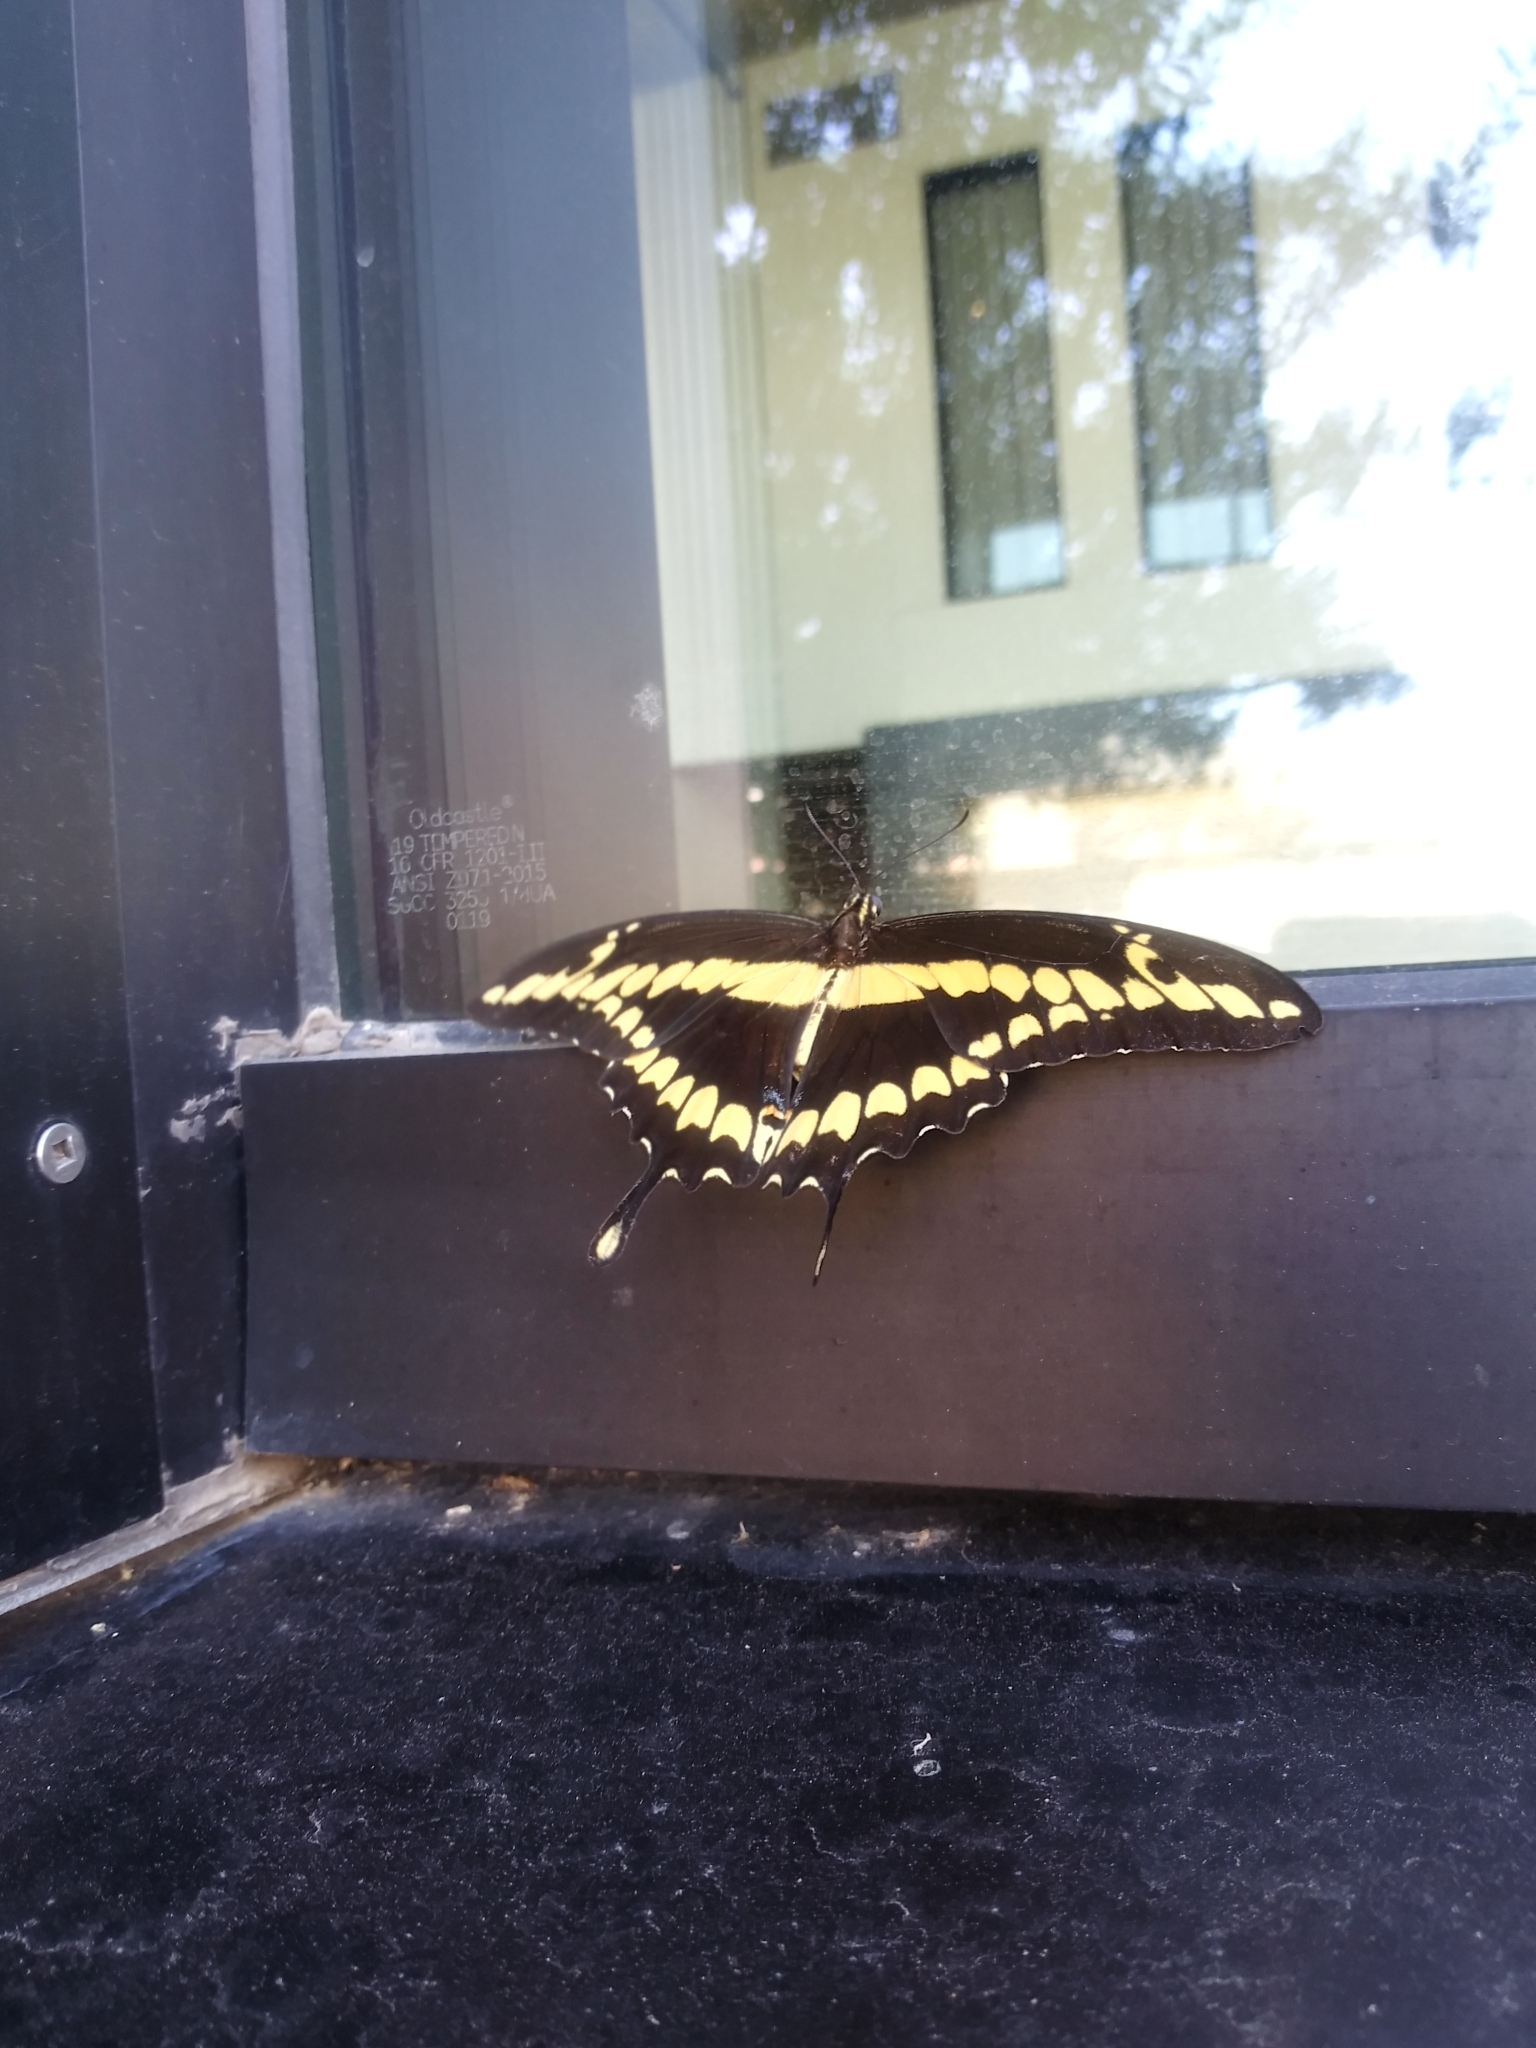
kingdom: Animalia
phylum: Arthropoda
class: Insecta
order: Lepidoptera
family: Papilionidae
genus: Papilio
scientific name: Papilio rumiko
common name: Western giant swallowtail
